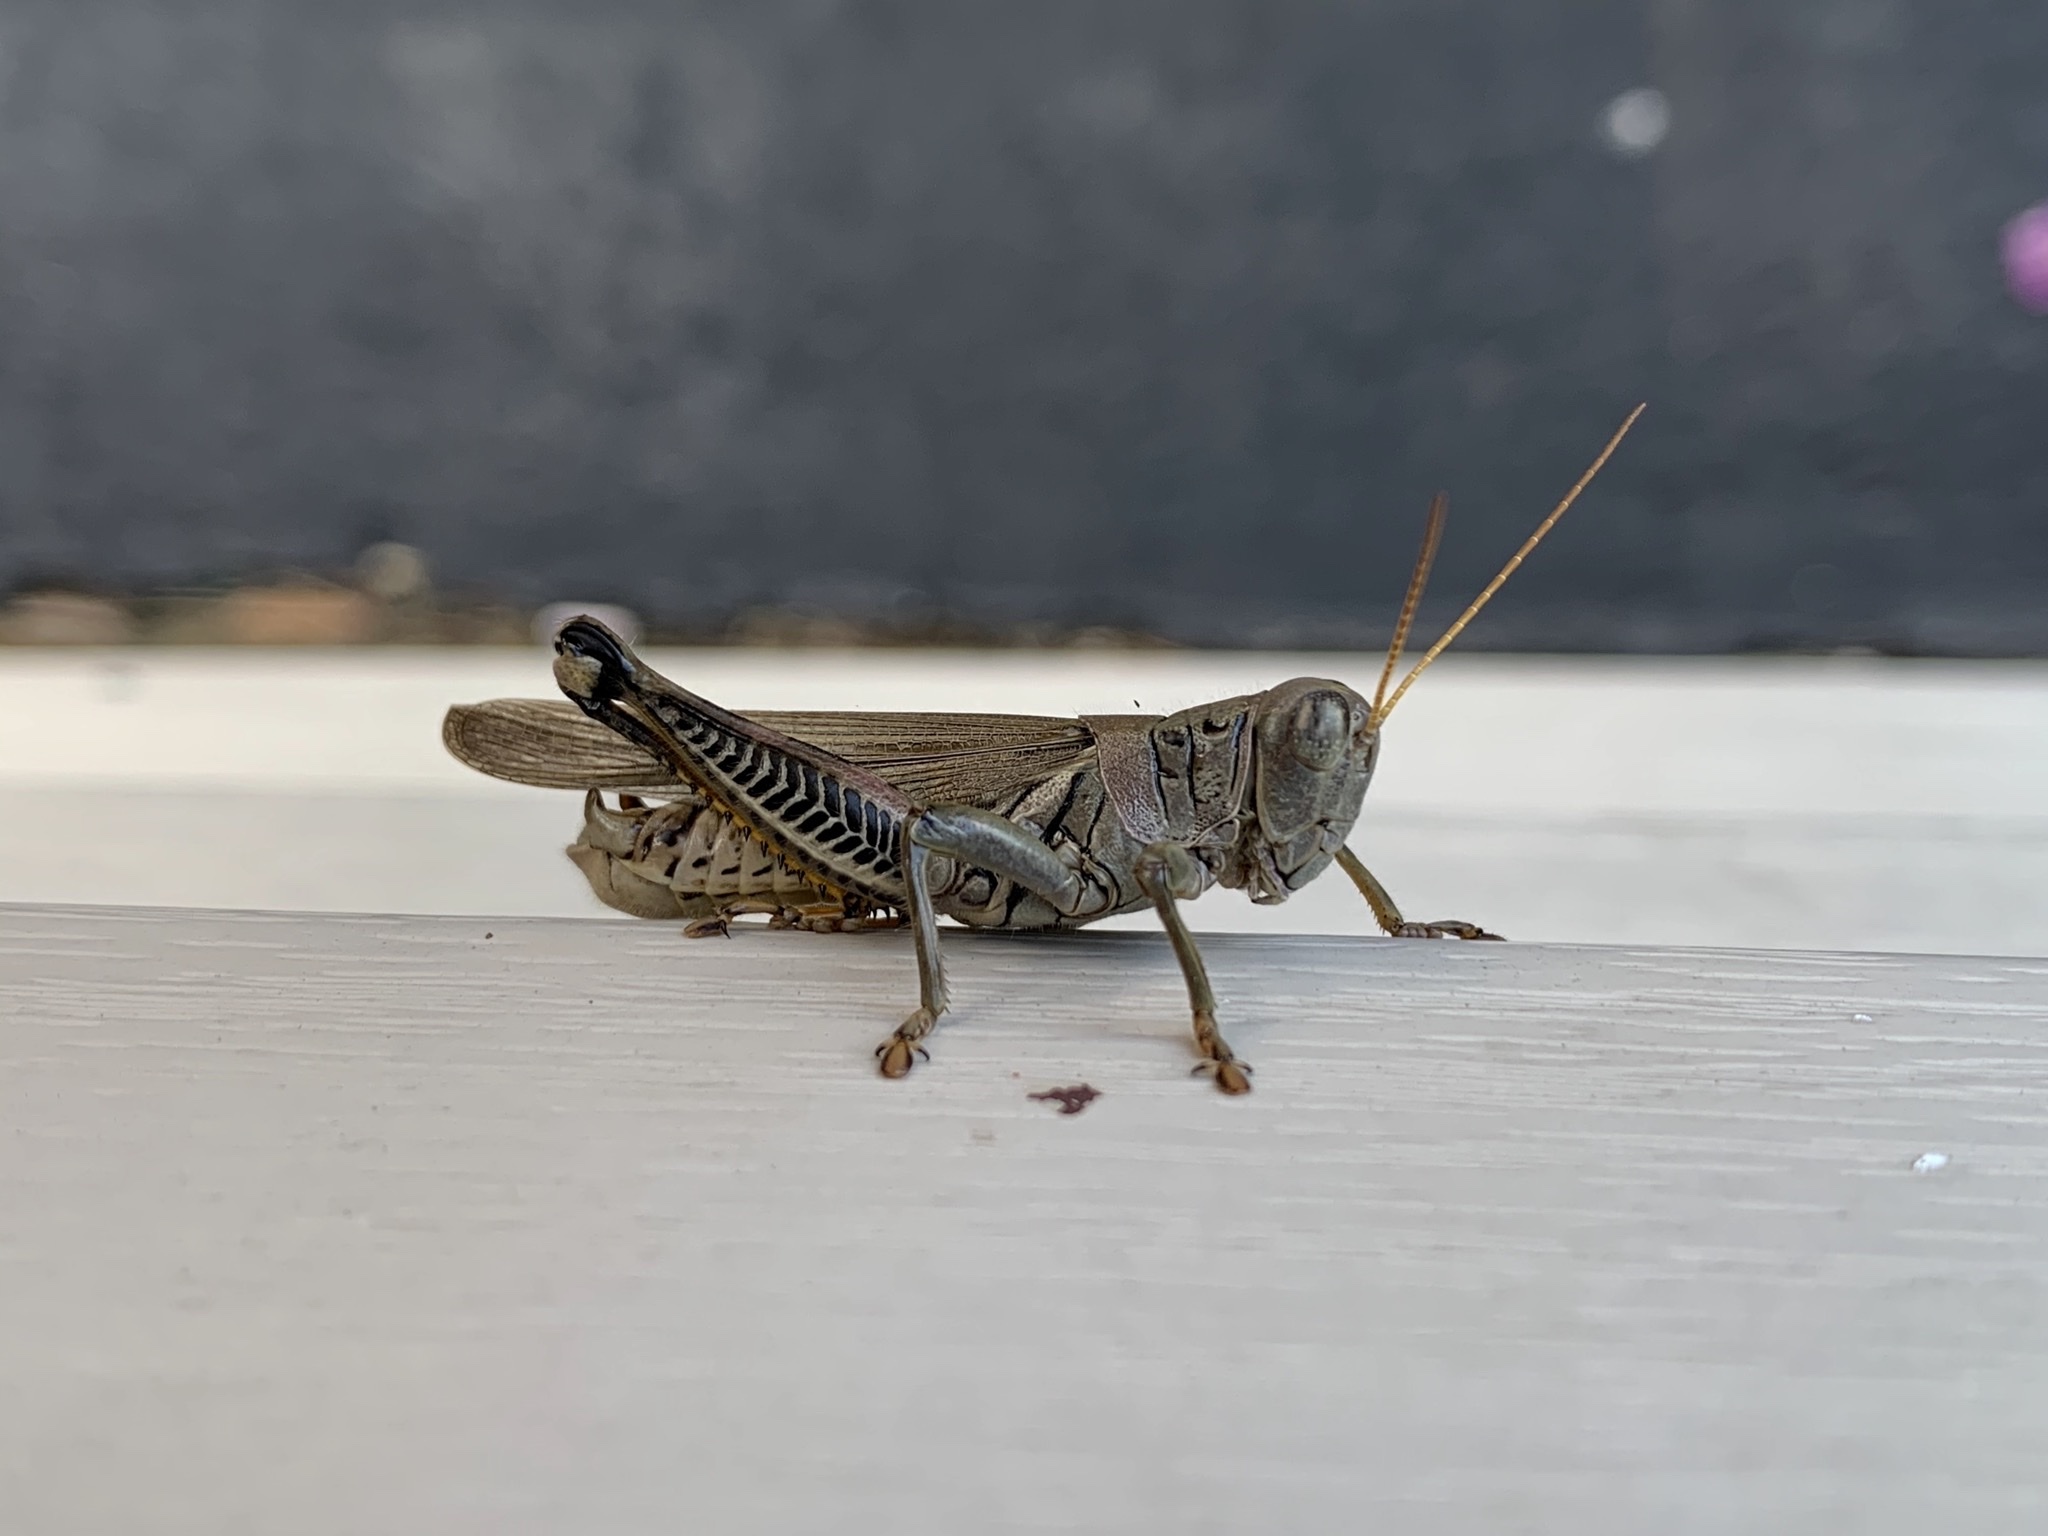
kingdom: Animalia
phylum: Arthropoda
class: Insecta
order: Orthoptera
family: Acrididae
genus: Melanoplus
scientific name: Melanoplus differentialis
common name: Differential grasshopper
